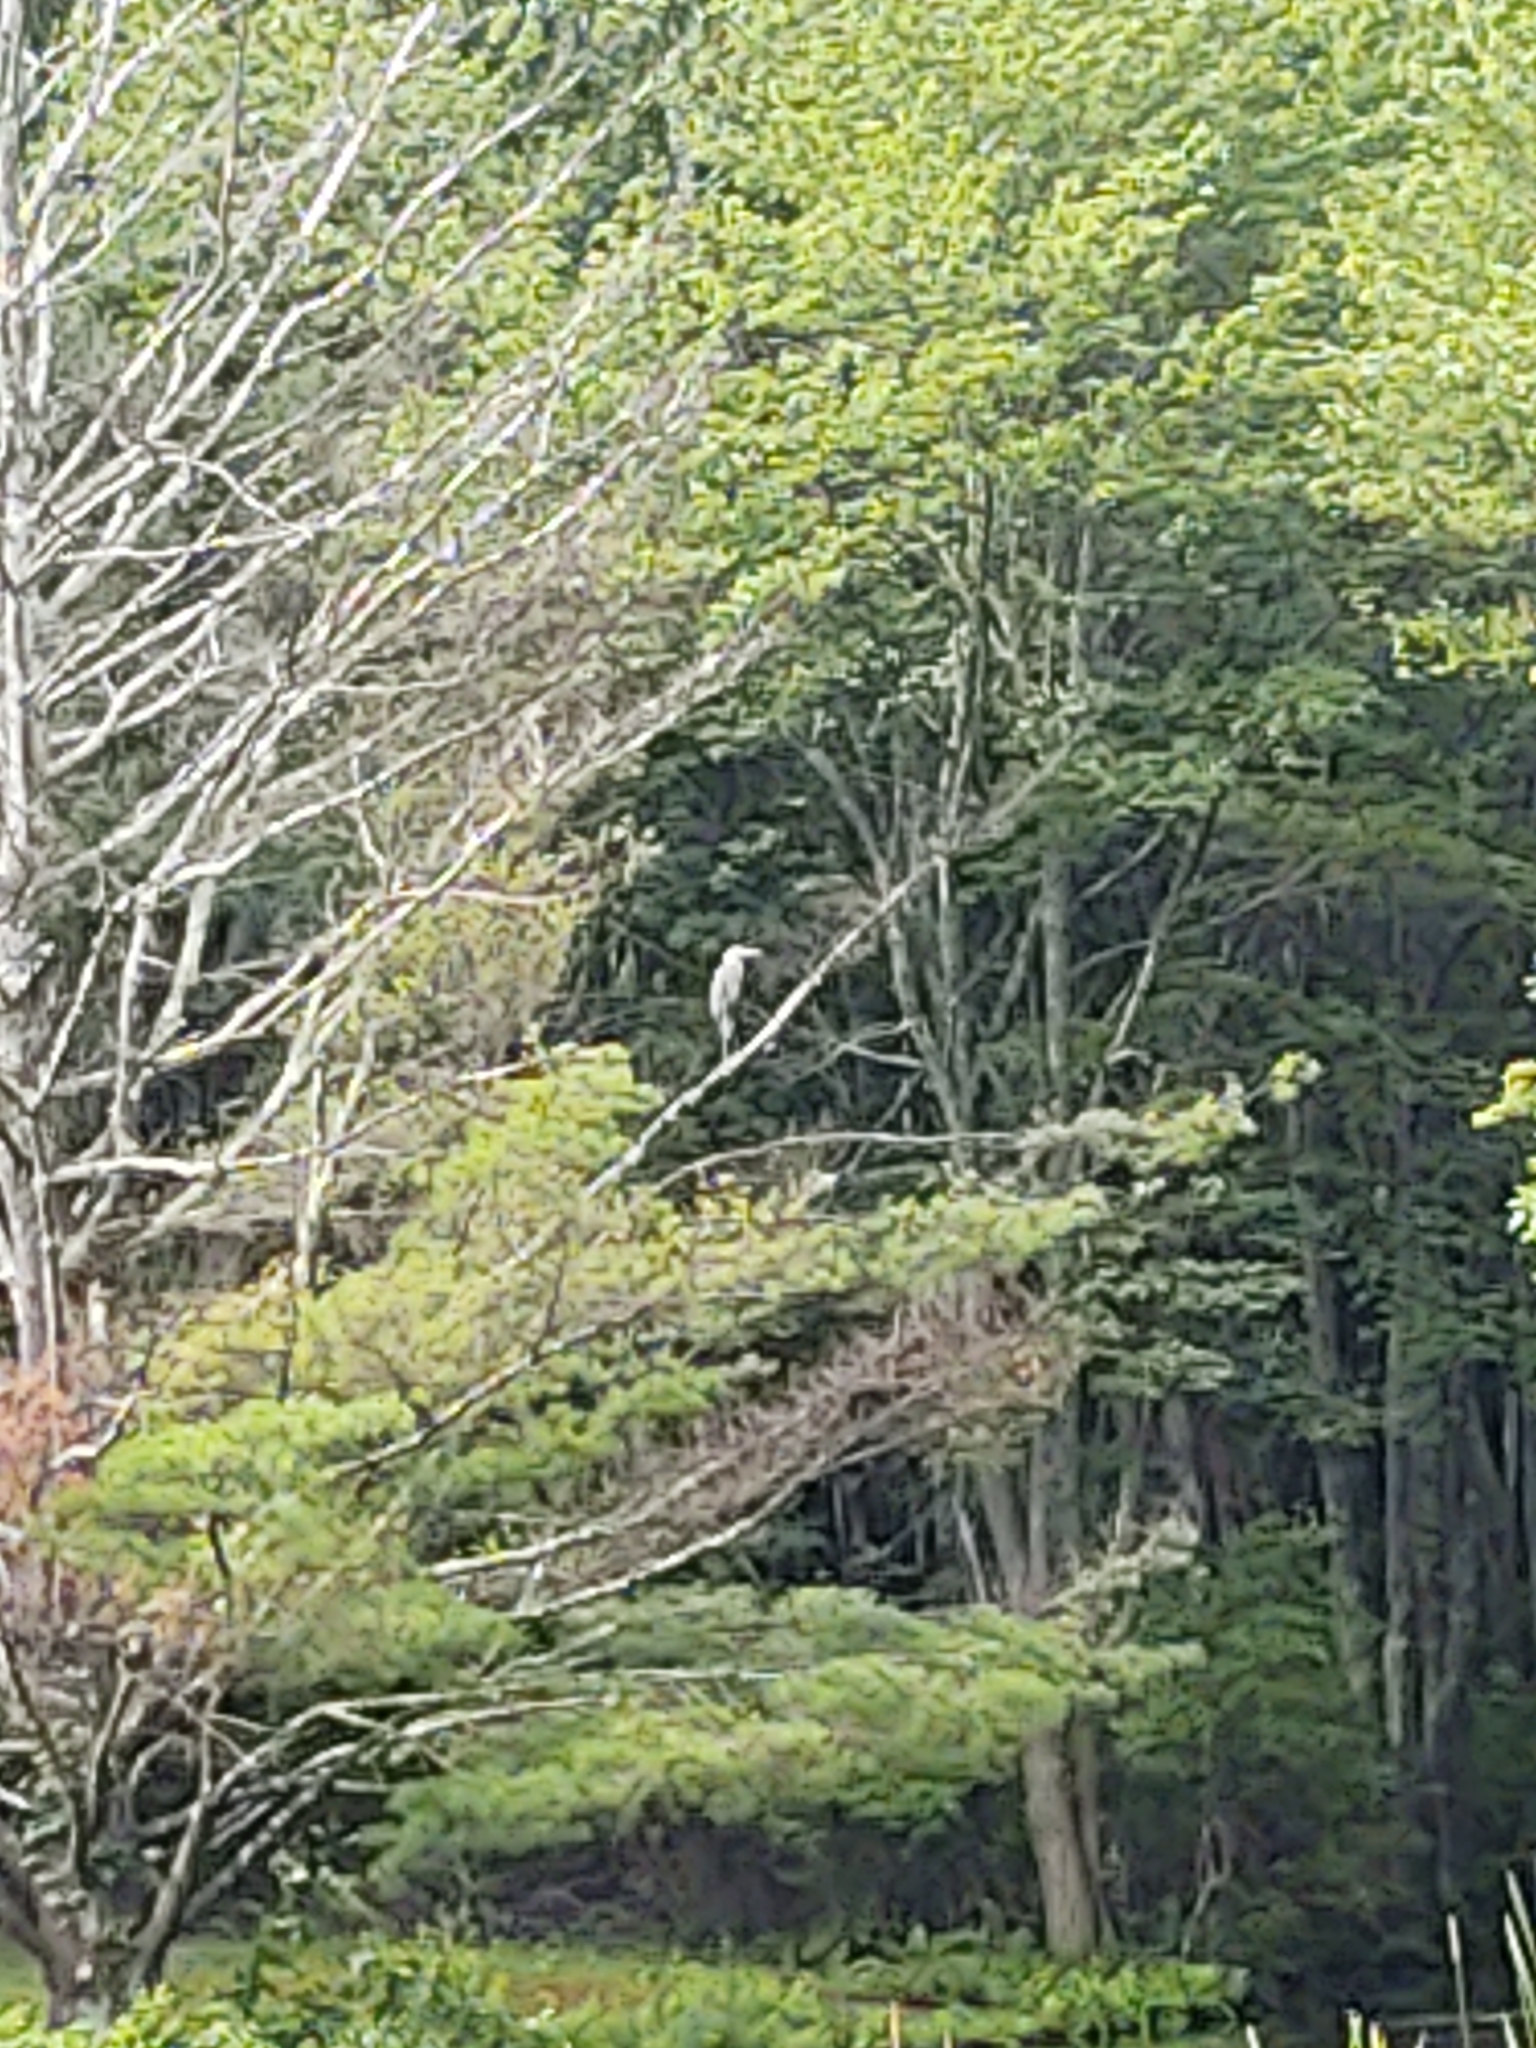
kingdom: Animalia
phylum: Chordata
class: Aves
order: Pelecaniformes
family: Ardeidae
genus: Ardea
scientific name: Ardea herodias
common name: Great blue heron
